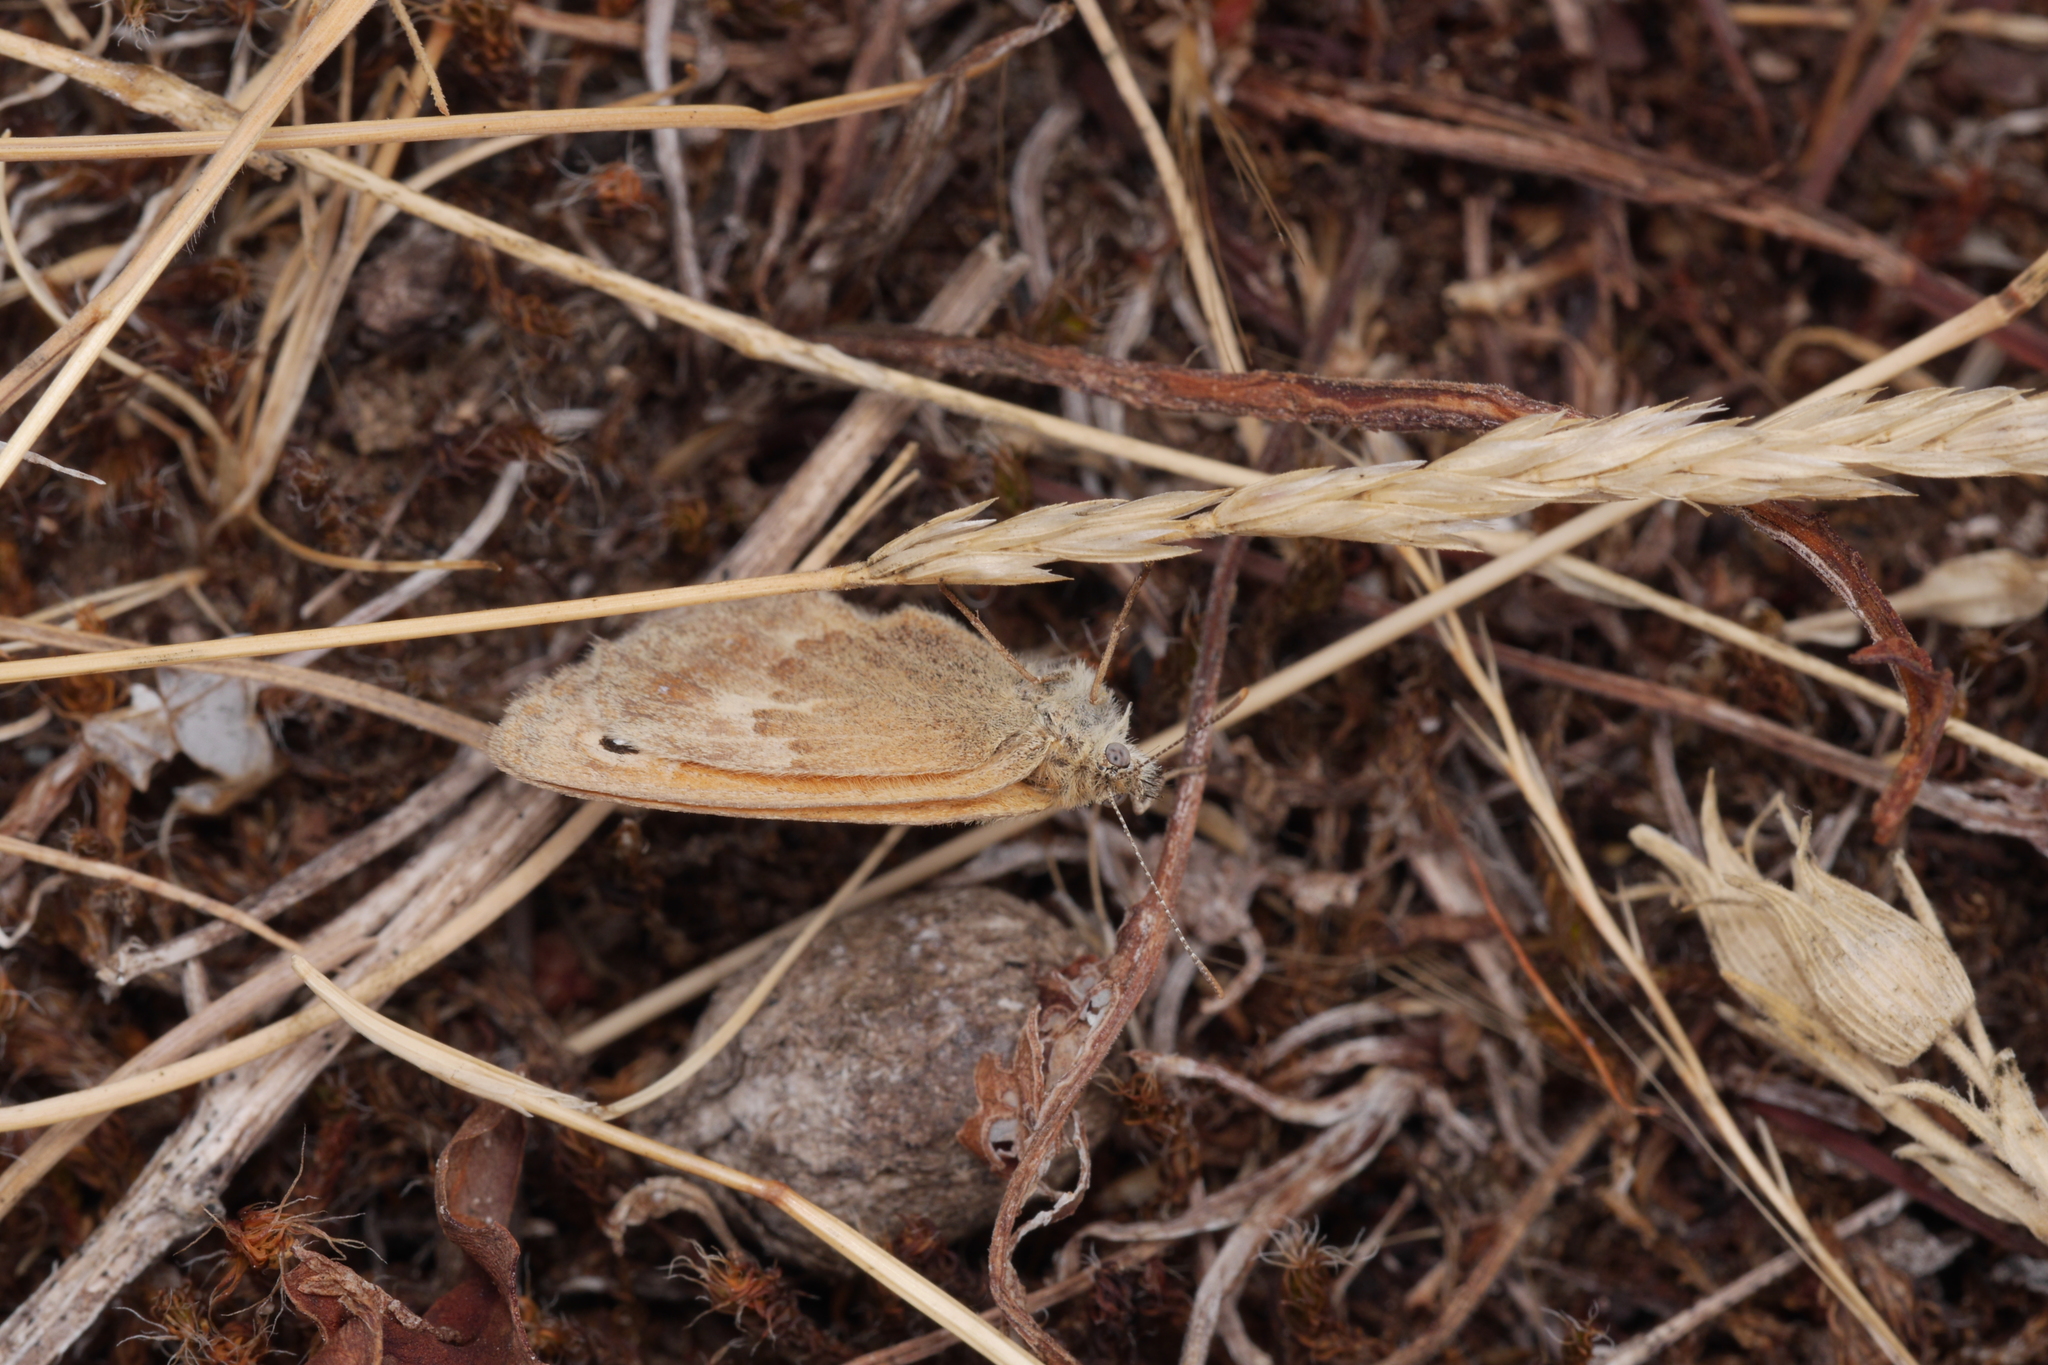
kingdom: Animalia
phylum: Arthropoda
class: Insecta
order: Lepidoptera
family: Nymphalidae
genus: Coenonympha
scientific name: Coenonympha pamphilus
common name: Small heath
